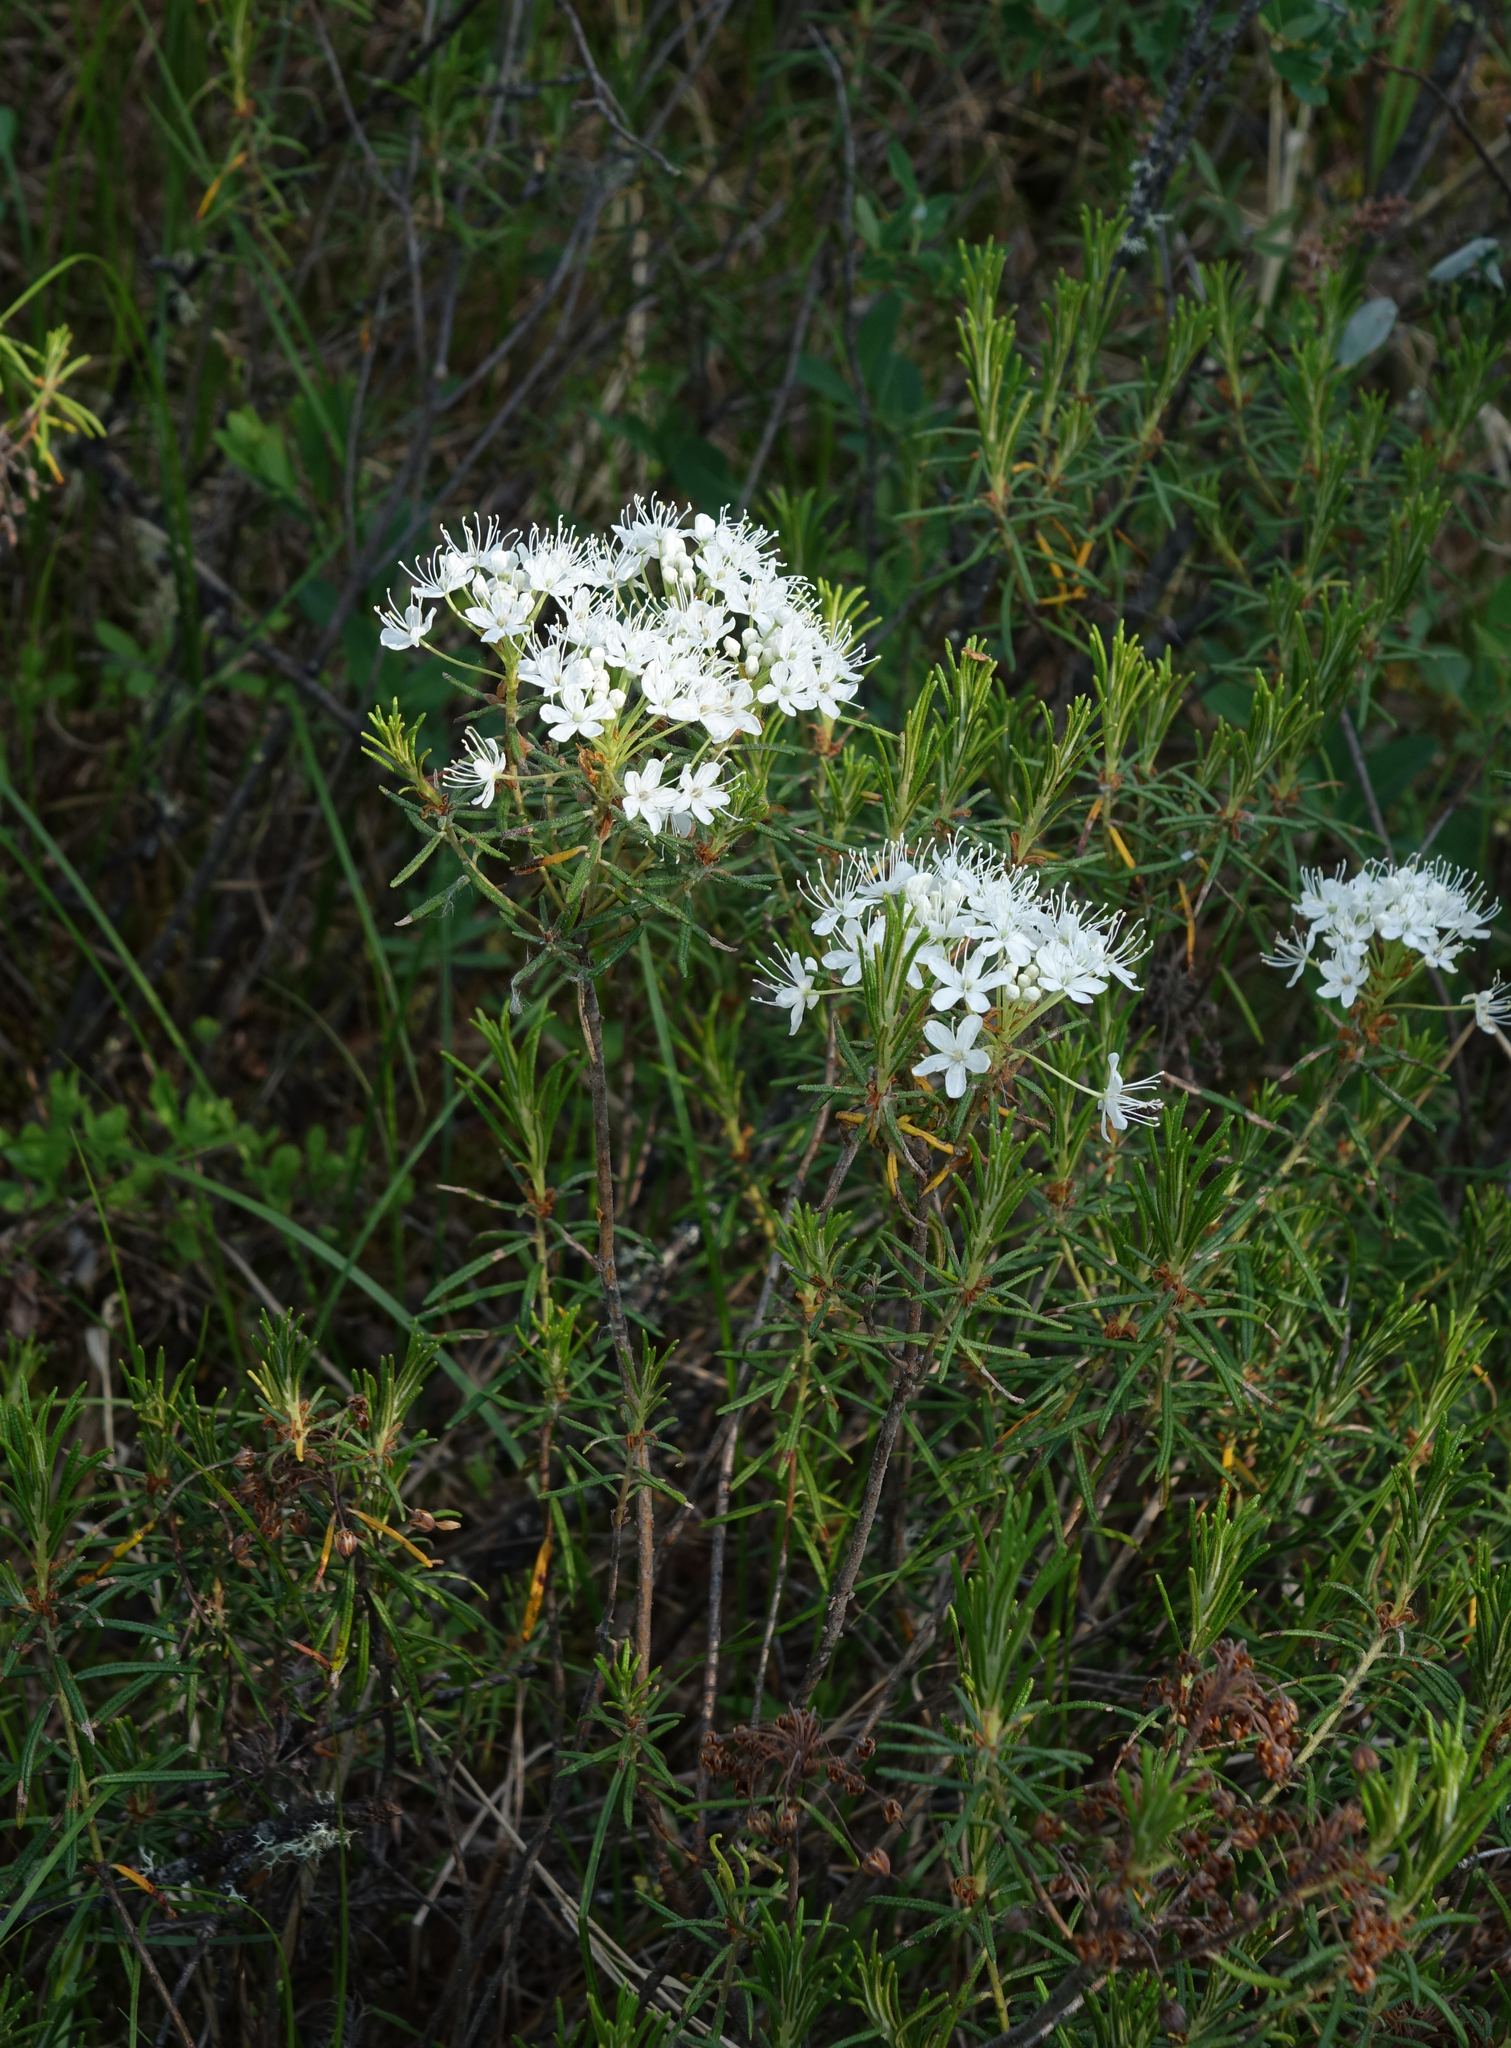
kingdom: Plantae
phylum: Tracheophyta
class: Magnoliopsida
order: Ericales
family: Ericaceae
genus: Rhododendron
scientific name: Rhododendron tomentosum
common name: Marsh labrador tea
